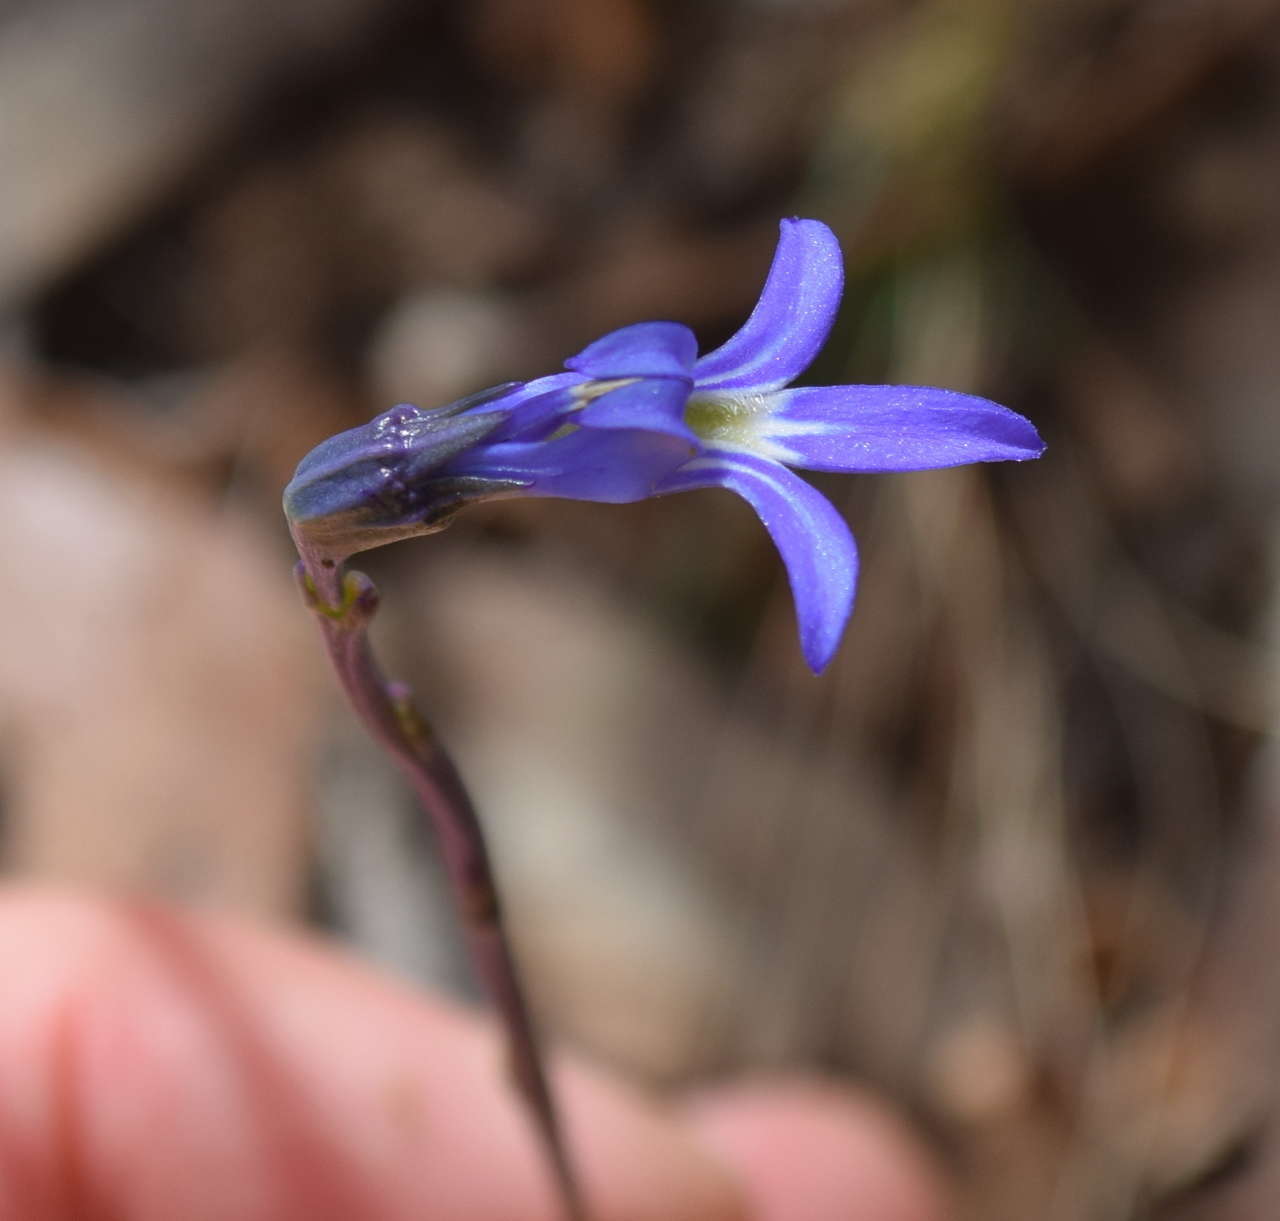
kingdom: Plantae
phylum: Tracheophyta
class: Magnoliopsida
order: Asterales
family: Campanulaceae
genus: Lobelia
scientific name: Lobelia gibbosa
